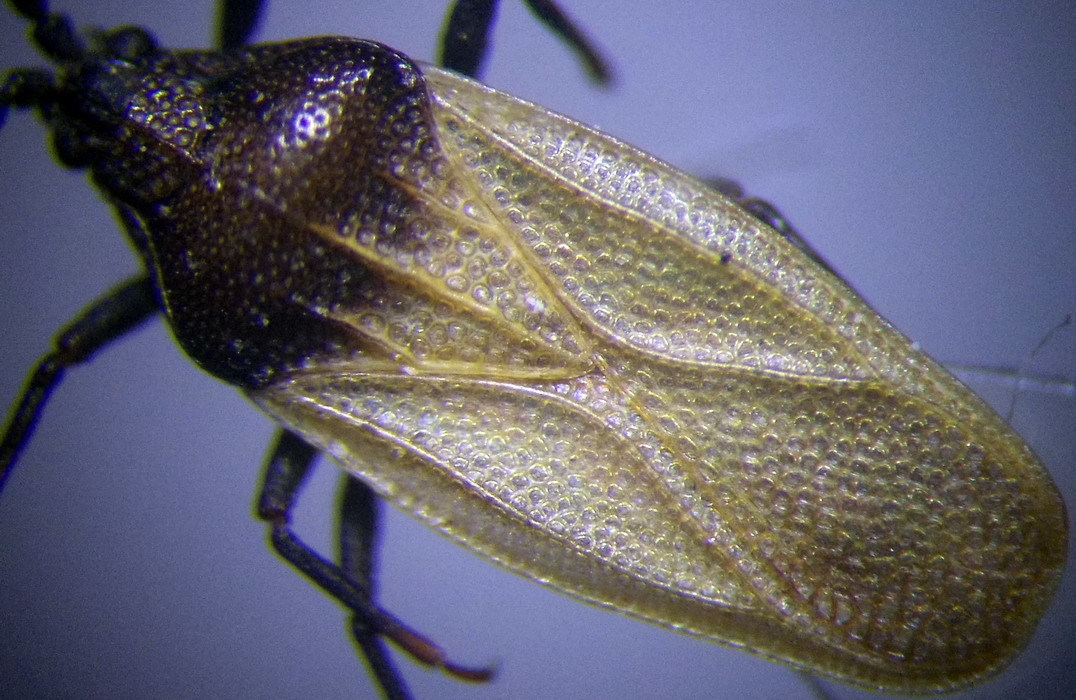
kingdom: Animalia
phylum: Arthropoda
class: Insecta
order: Hemiptera
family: Tingidae
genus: Catoplatus
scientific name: Catoplatus carthusianus
